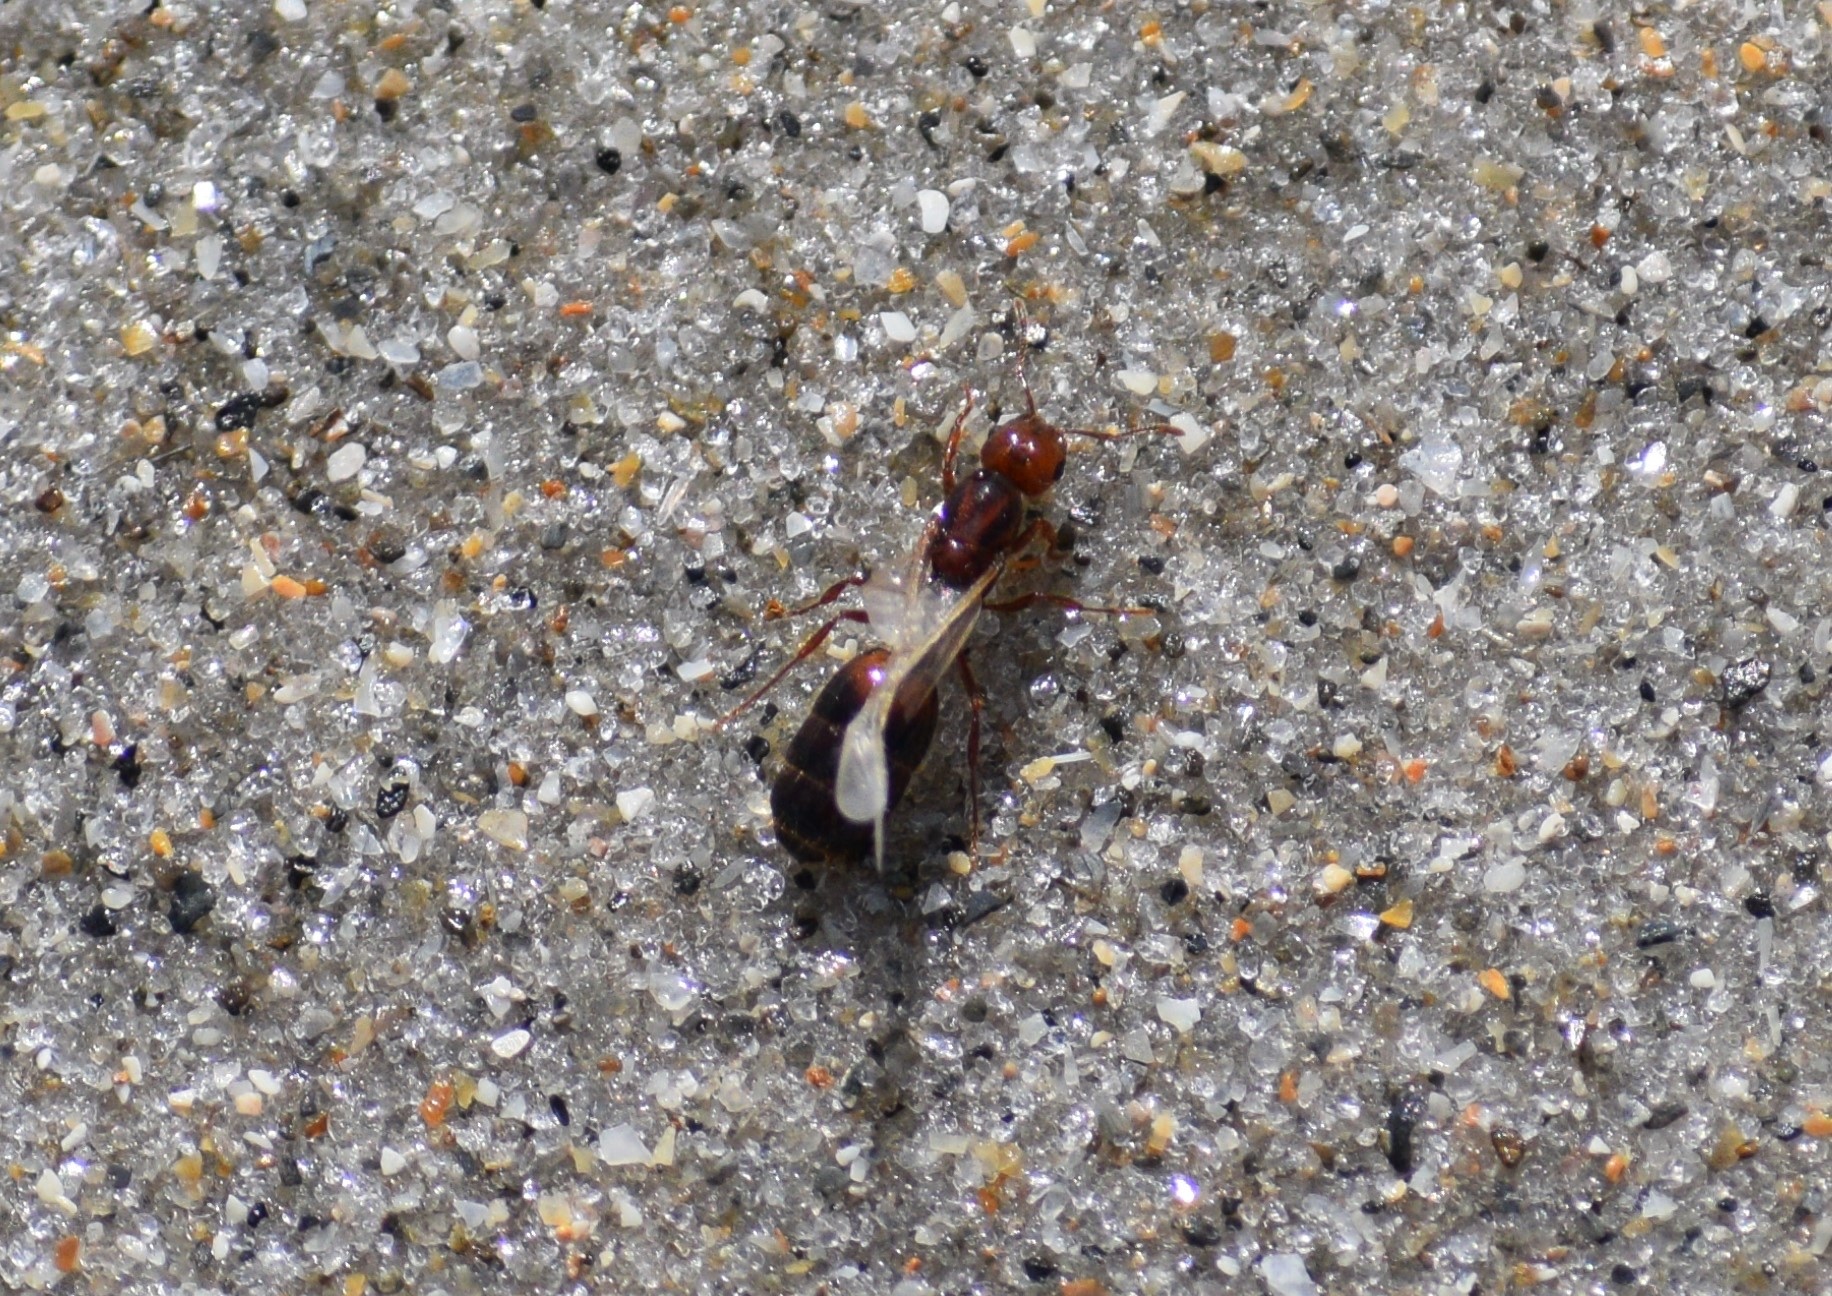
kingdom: Animalia
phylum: Arthropoda
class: Insecta
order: Hymenoptera
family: Formicidae
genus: Solenopsis
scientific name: Solenopsis invicta
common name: Red imported fire ant
